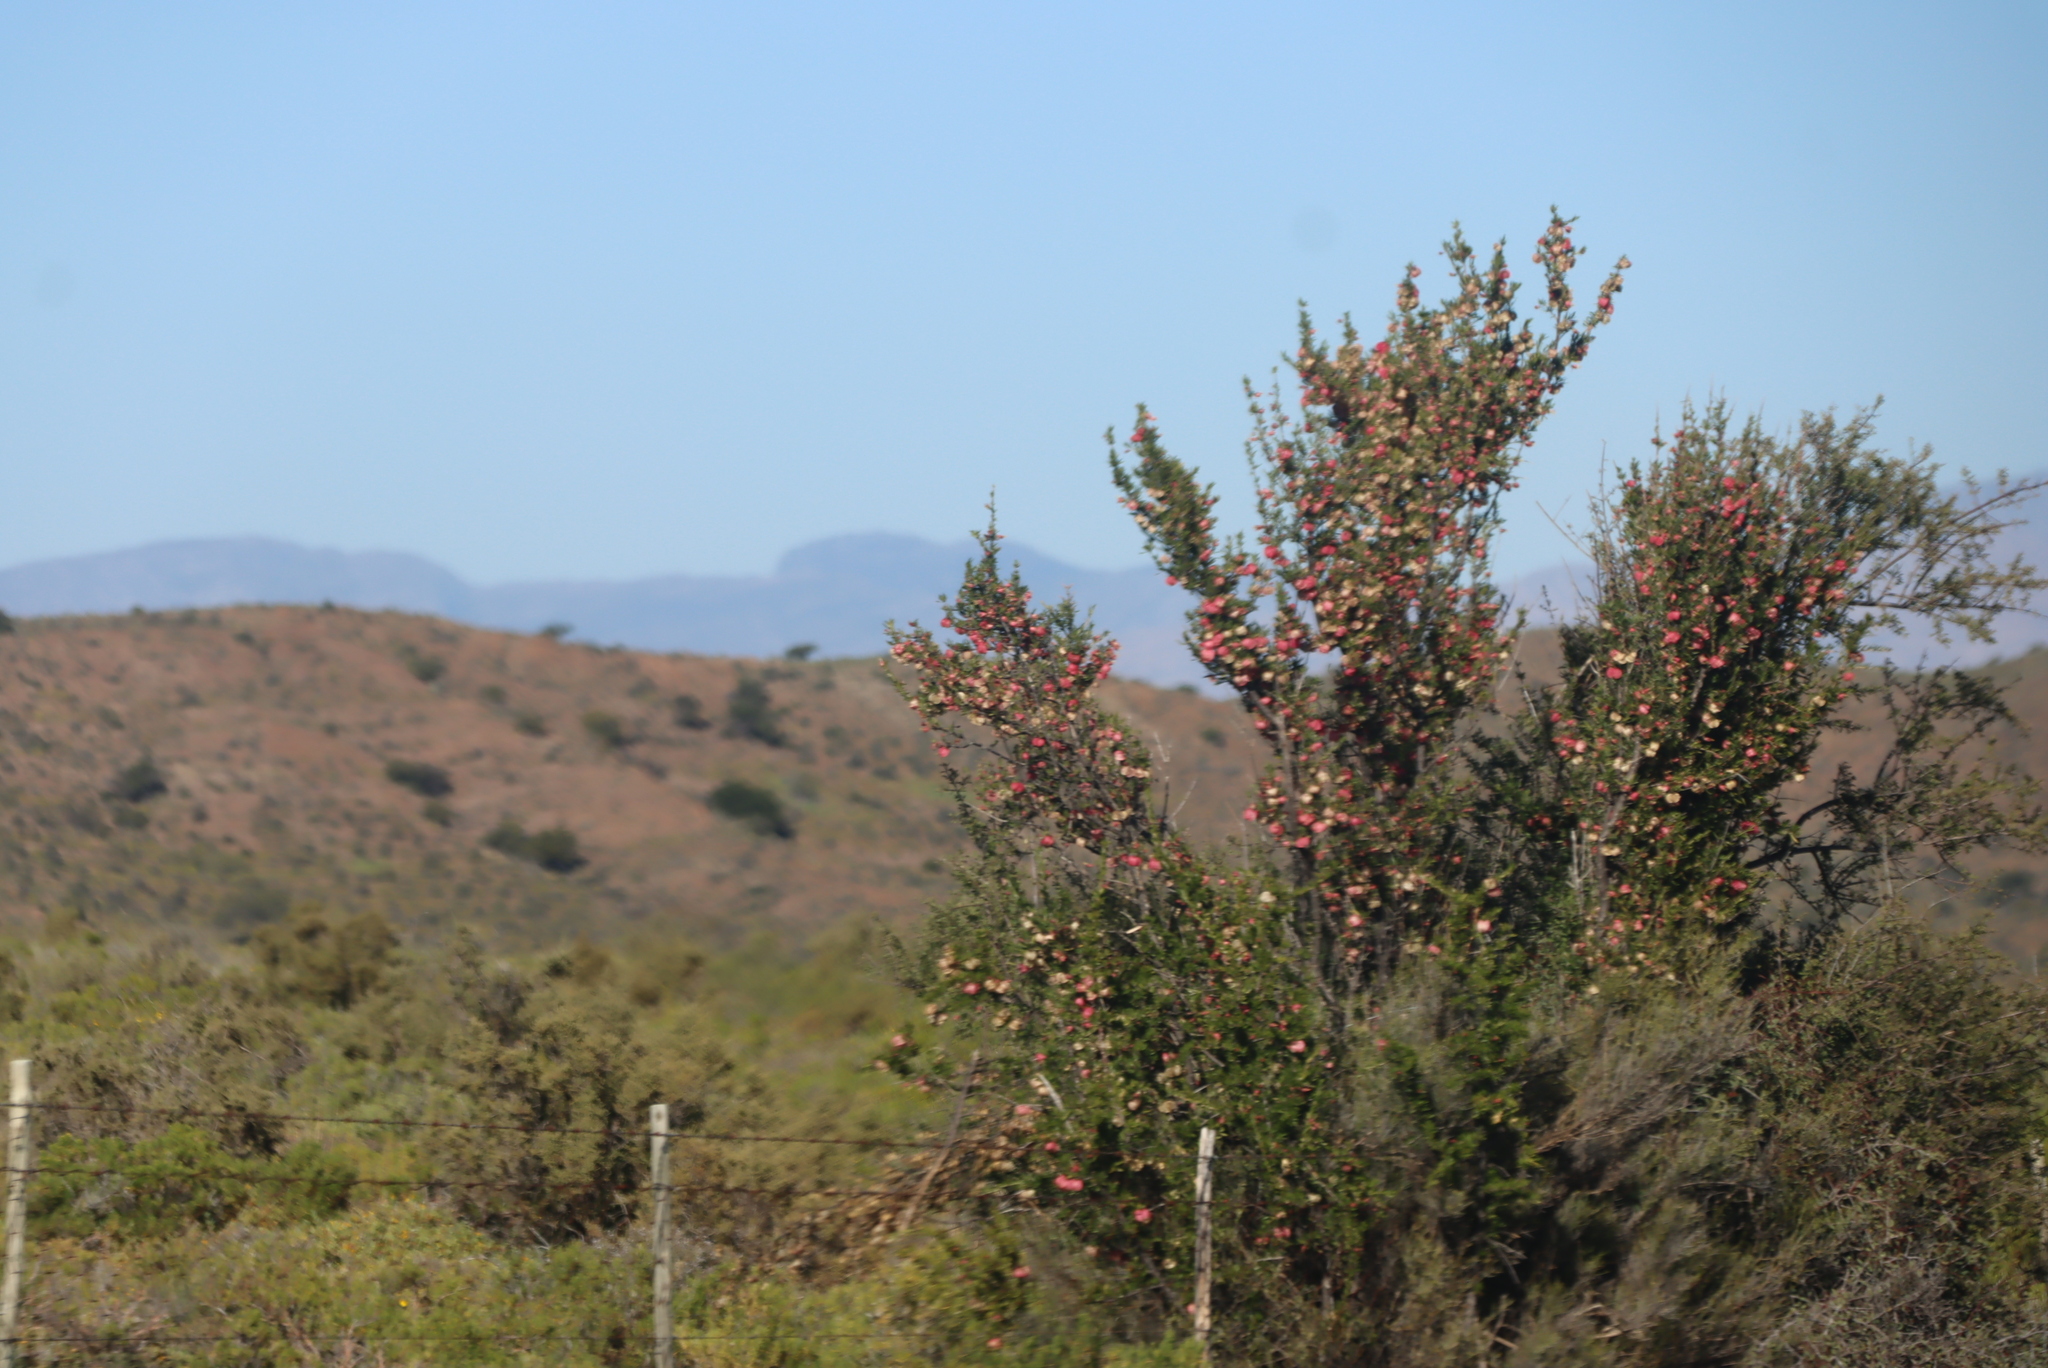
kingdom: Plantae
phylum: Tracheophyta
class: Magnoliopsida
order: Sapindales
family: Meliaceae
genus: Nymania
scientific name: Nymania capensis
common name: Chinese lantern tree
